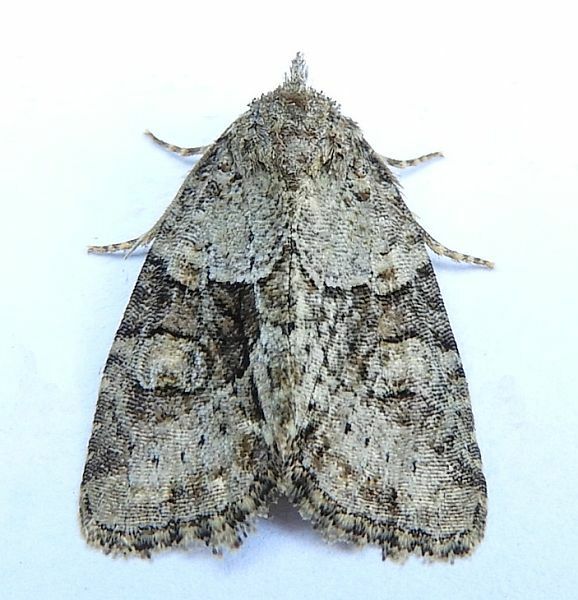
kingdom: Animalia
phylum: Arthropoda
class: Insecta
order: Lepidoptera
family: Noctuidae
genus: Neoligia
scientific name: Neoligia exhausta
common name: Exhausted brocade
